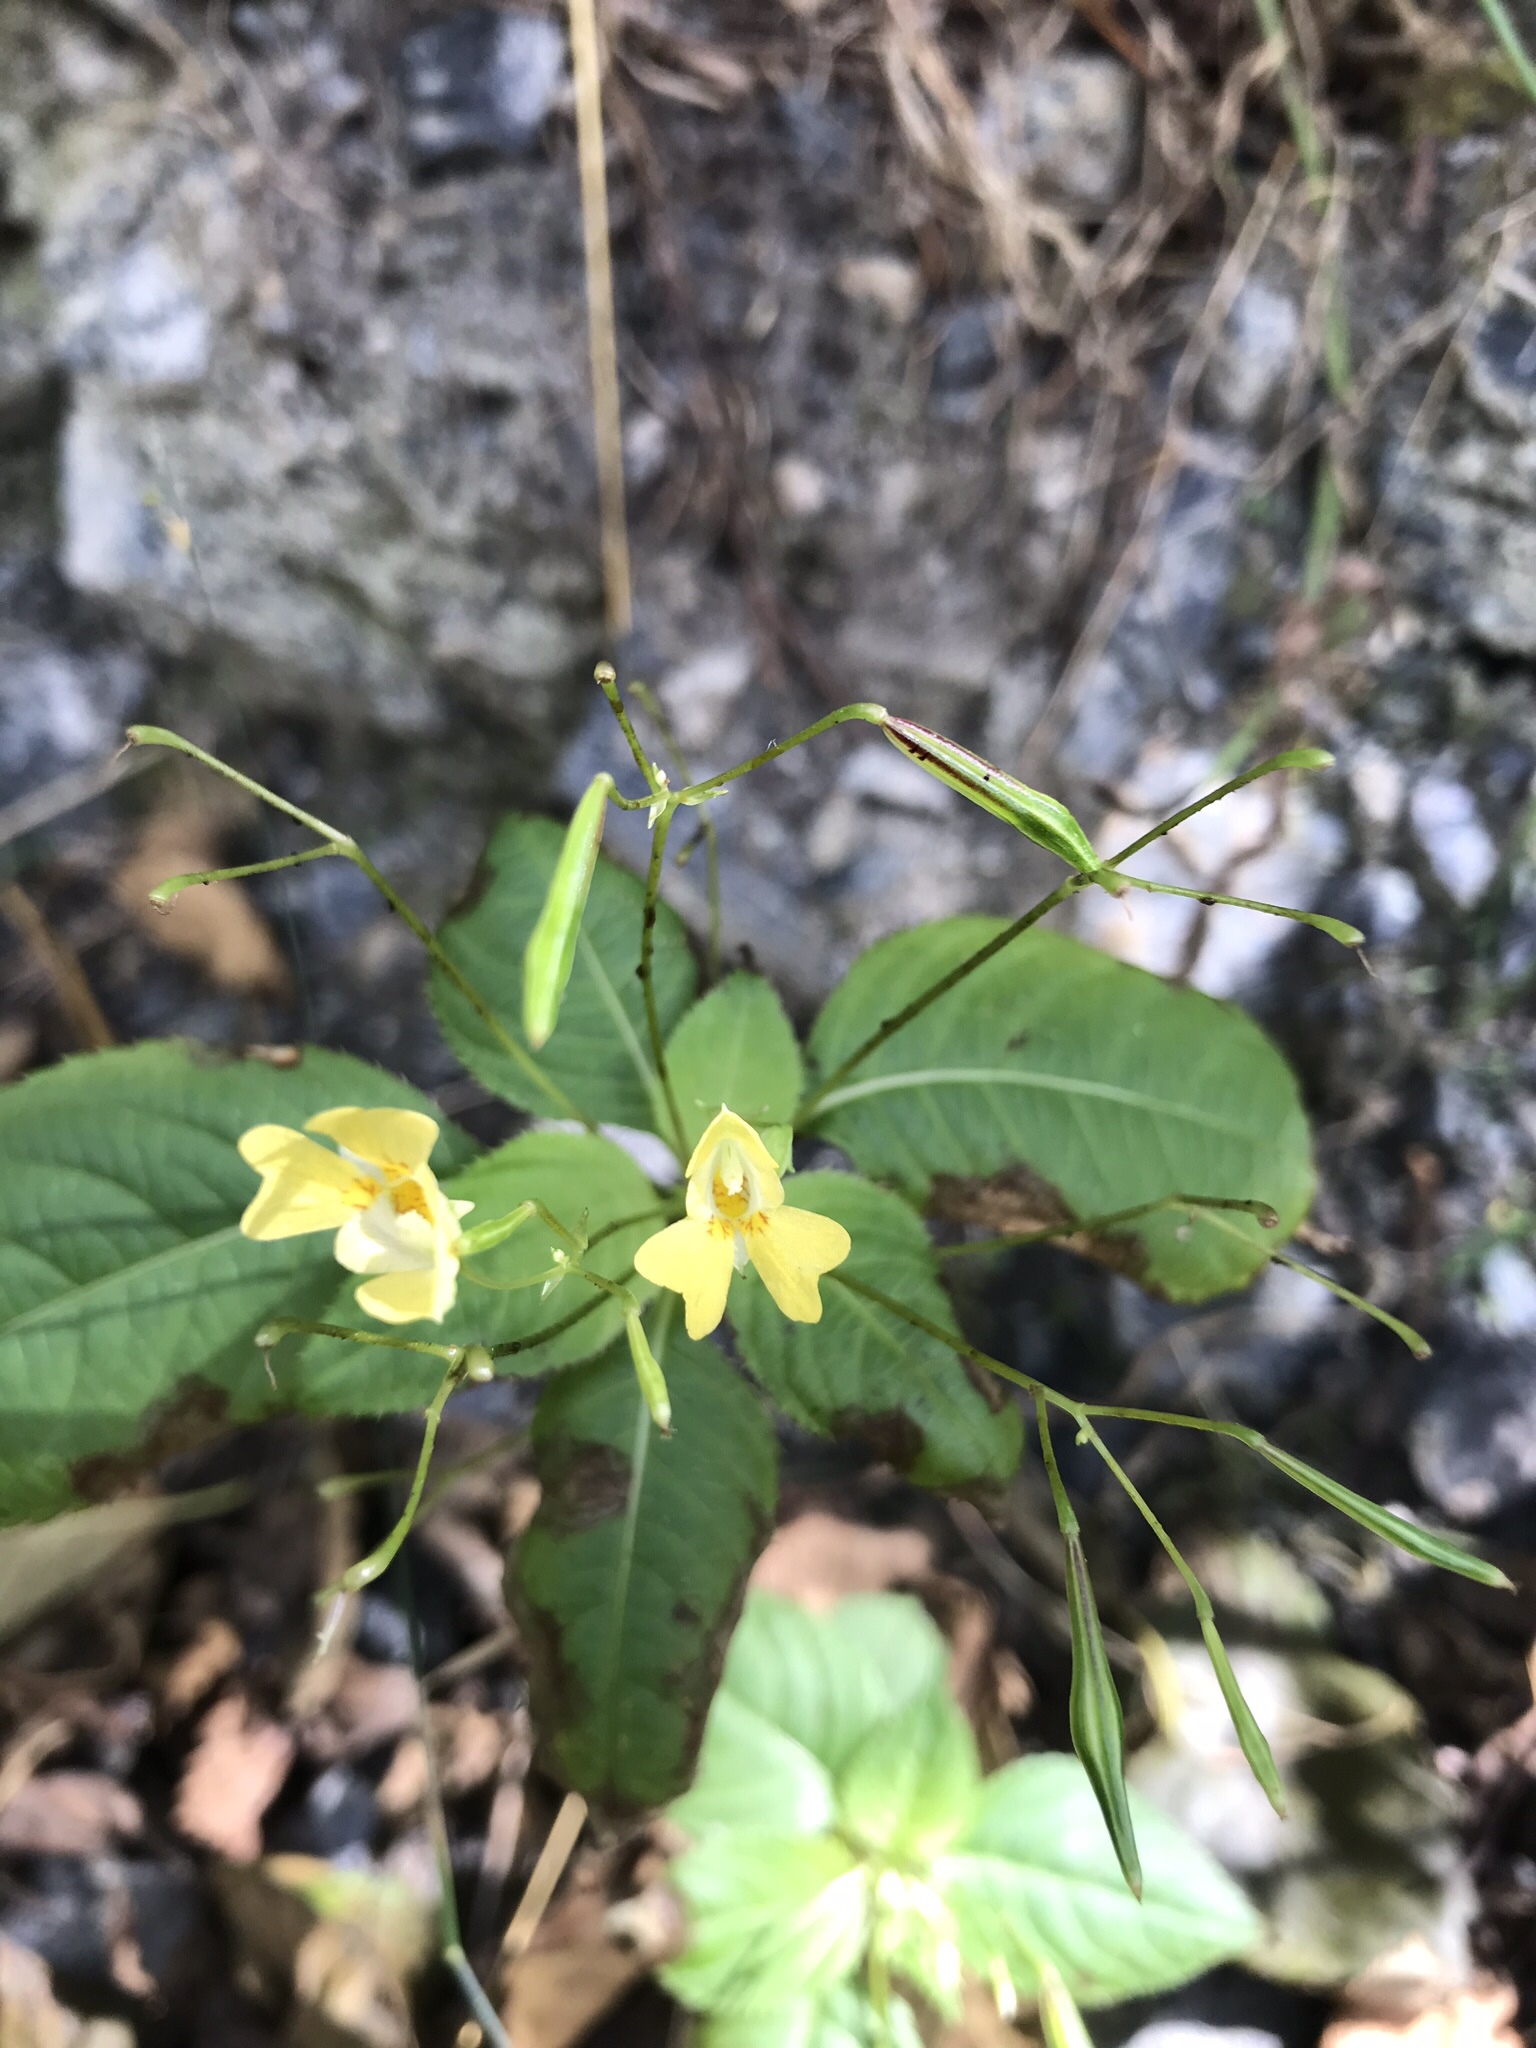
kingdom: Plantae
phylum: Tracheophyta
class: Magnoliopsida
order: Ericales
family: Balsaminaceae
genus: Impatiens
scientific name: Impatiens parviflora
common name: Small balsam
